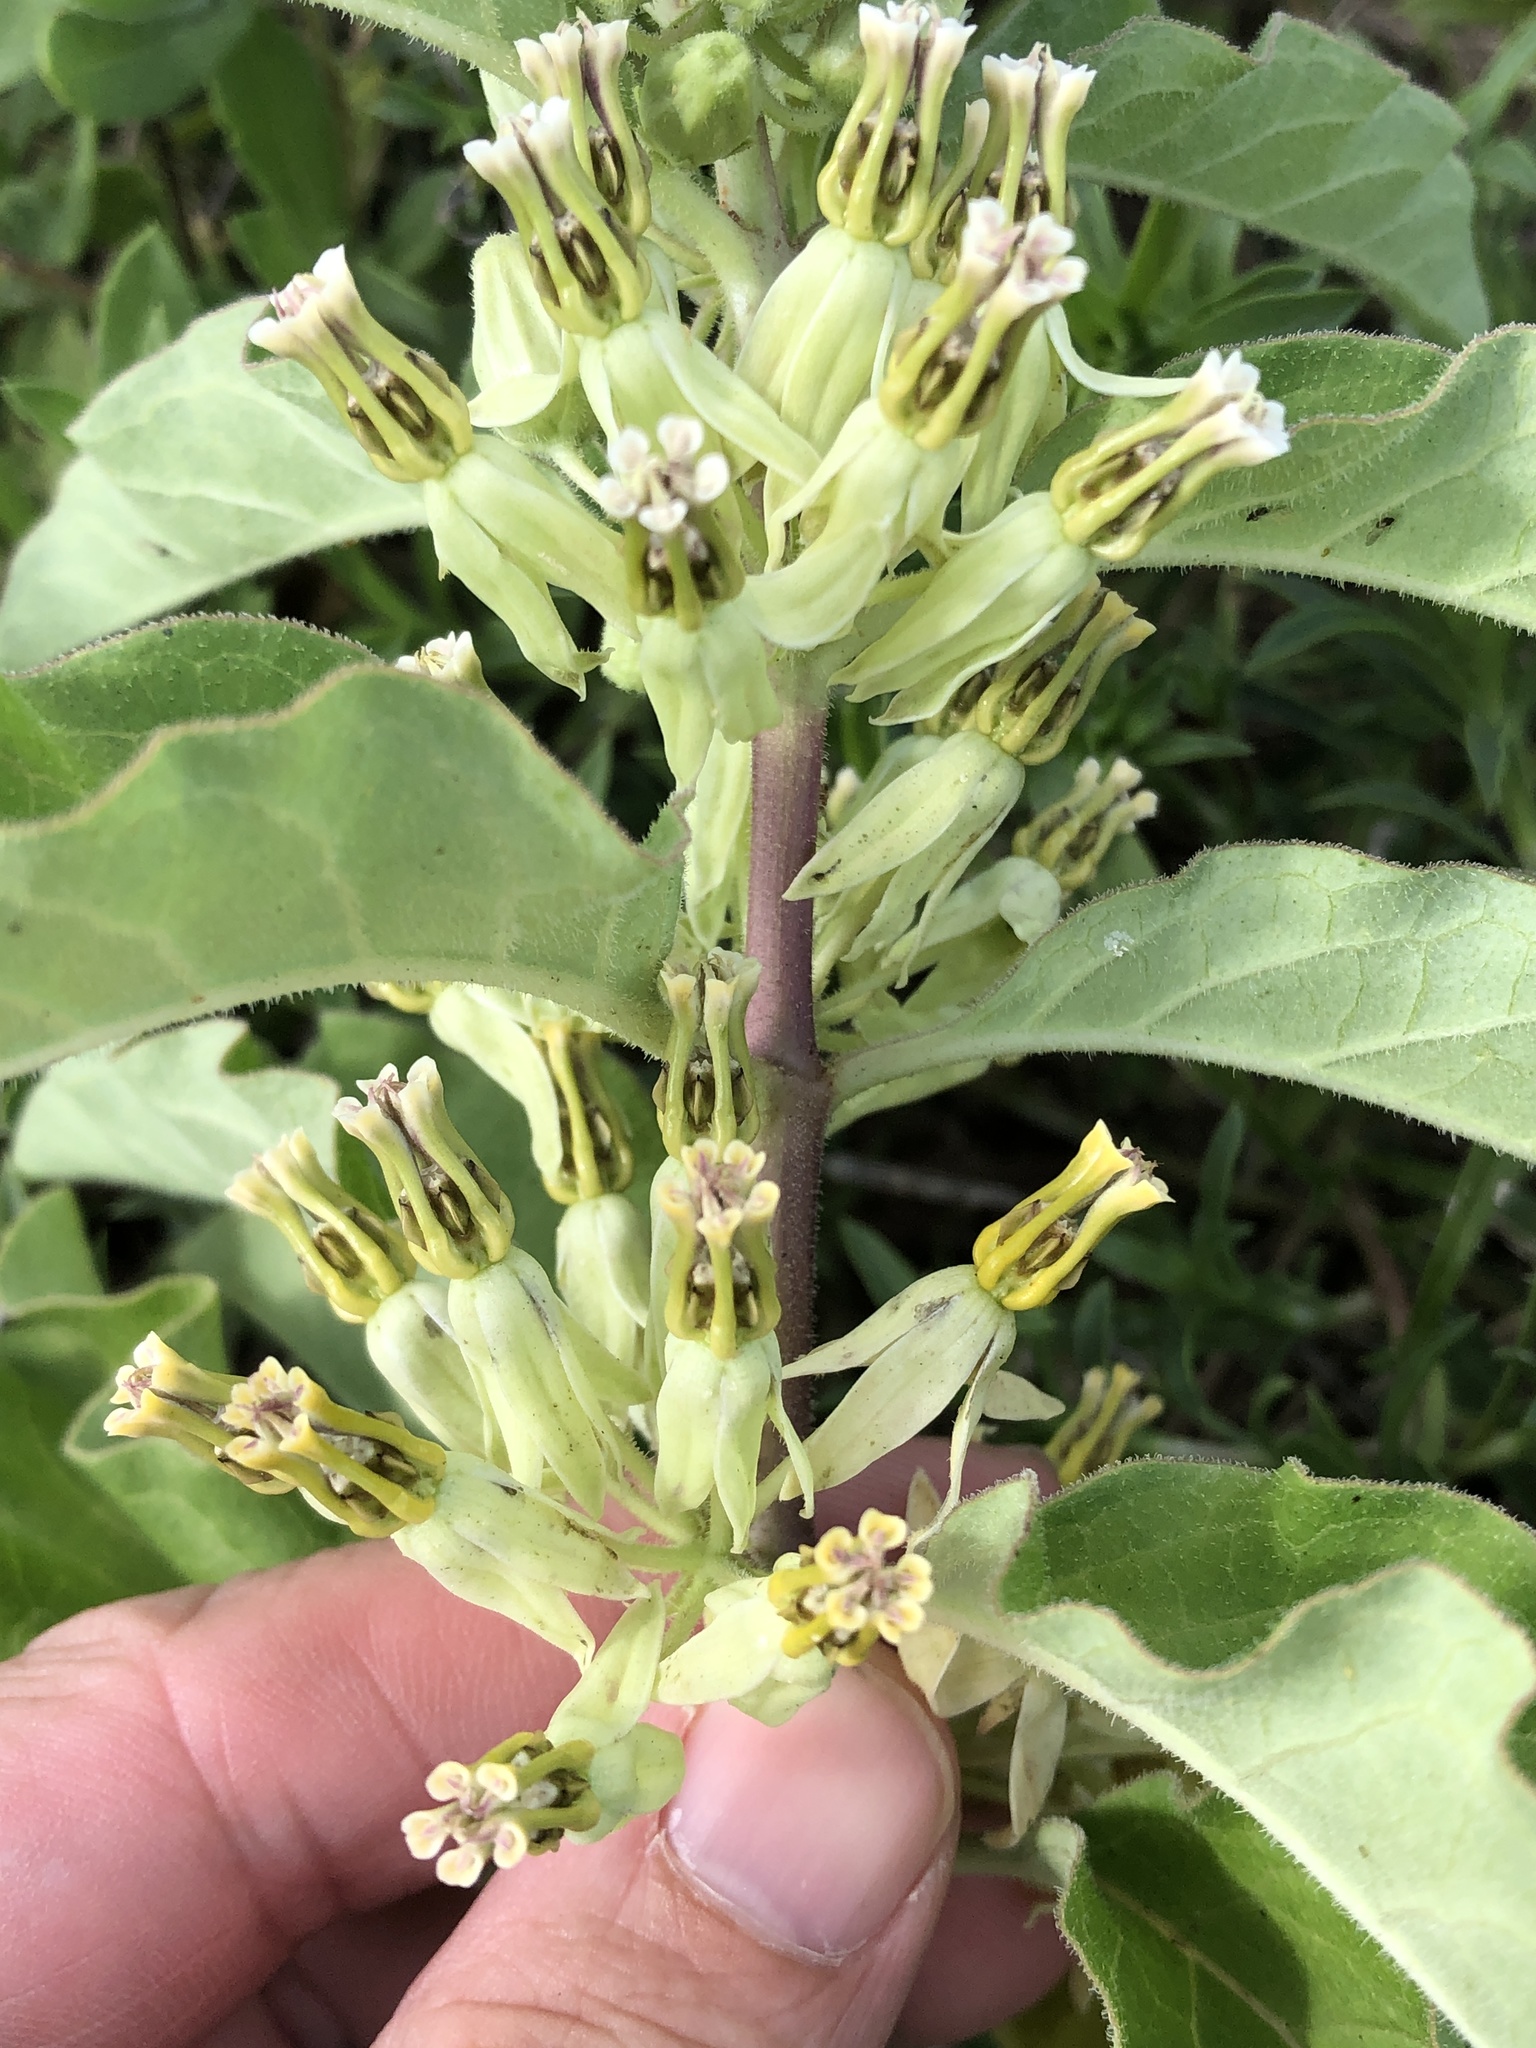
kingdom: Plantae
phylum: Tracheophyta
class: Magnoliopsida
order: Gentianales
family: Apocynaceae
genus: Asclepias
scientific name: Asclepias oenotheroides
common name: Zizotes milkweed
